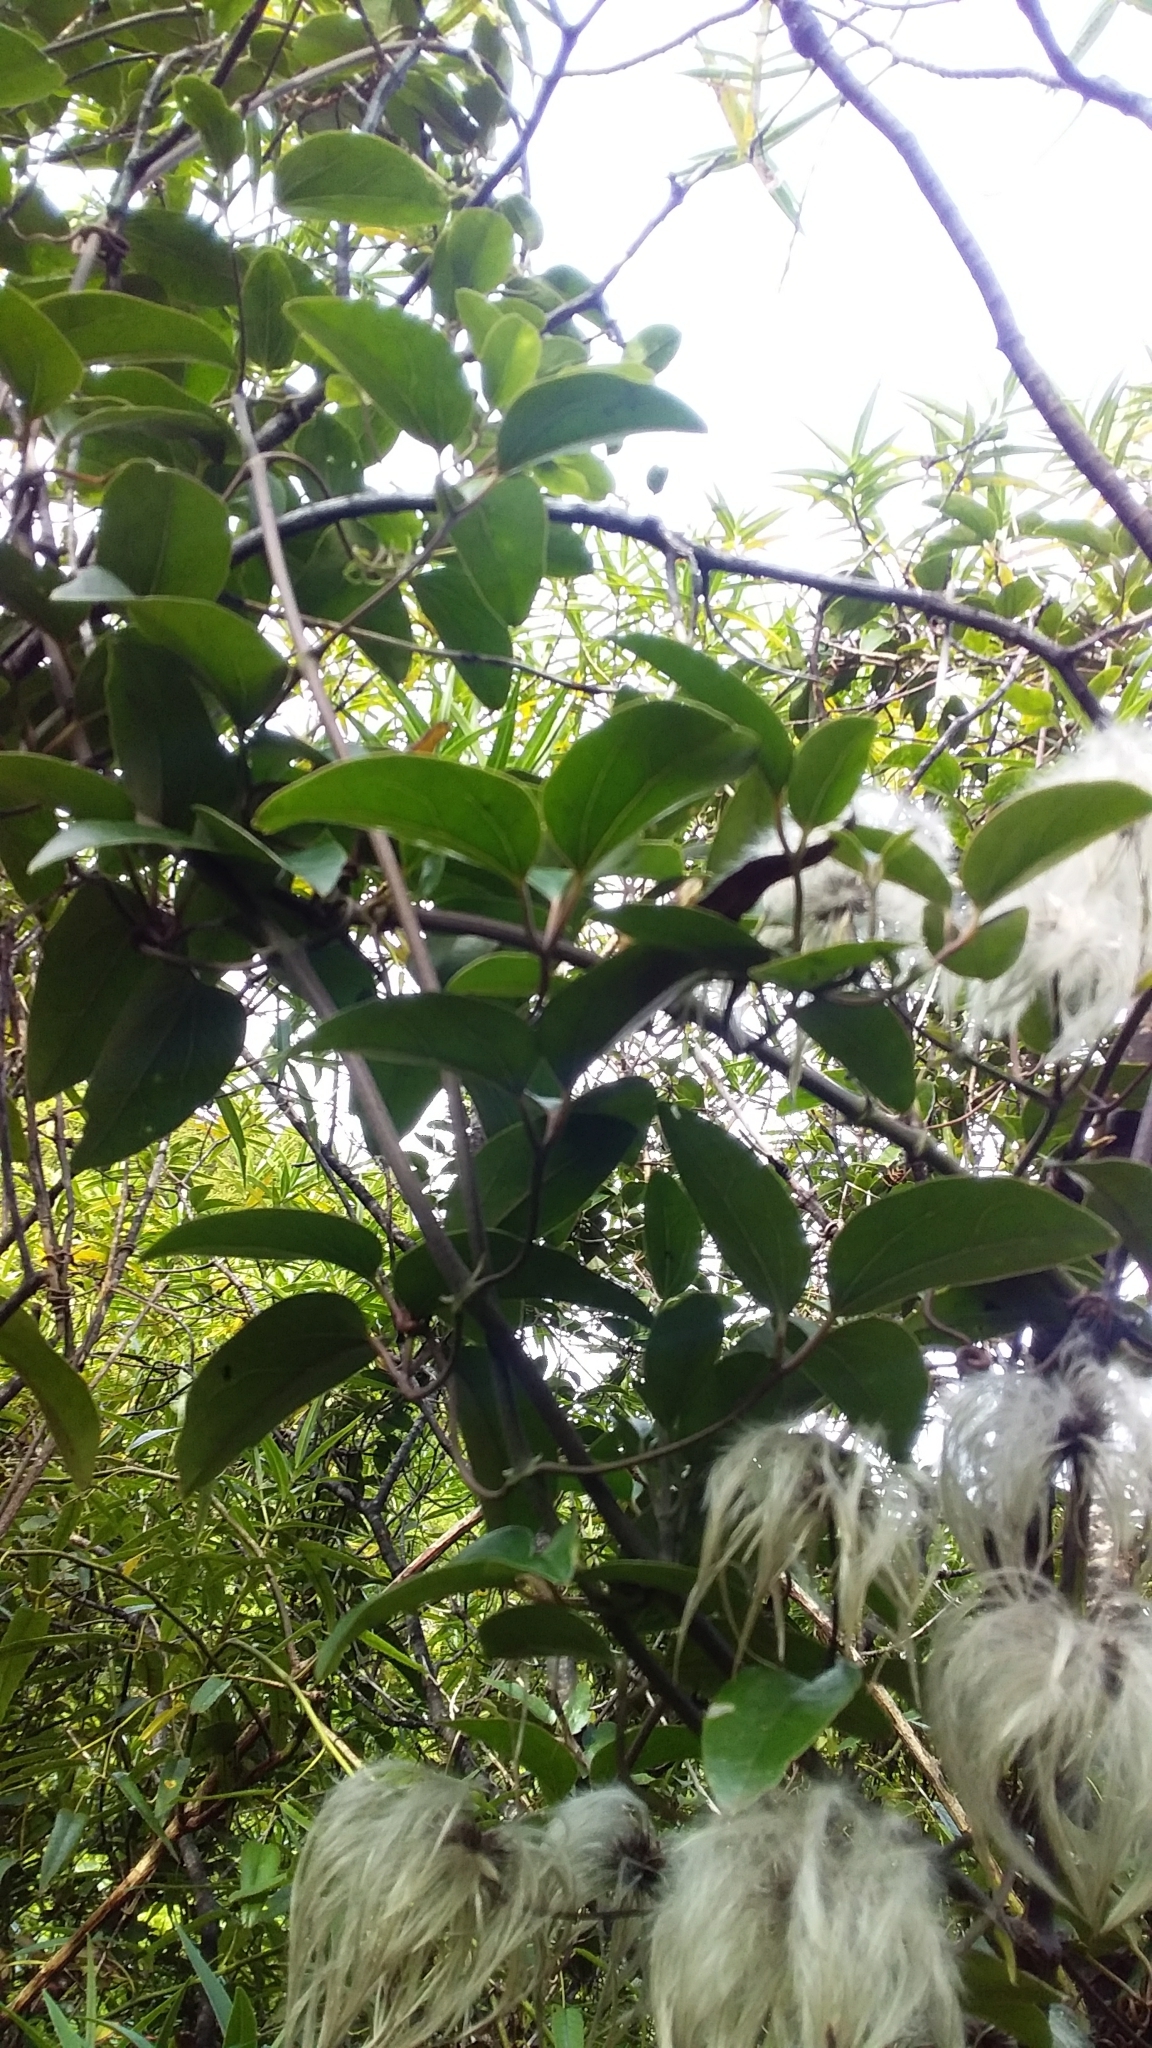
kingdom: Plantae
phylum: Tracheophyta
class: Magnoliopsida
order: Ranunculales
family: Ranunculaceae
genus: Clematis
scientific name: Clematis paniculata
